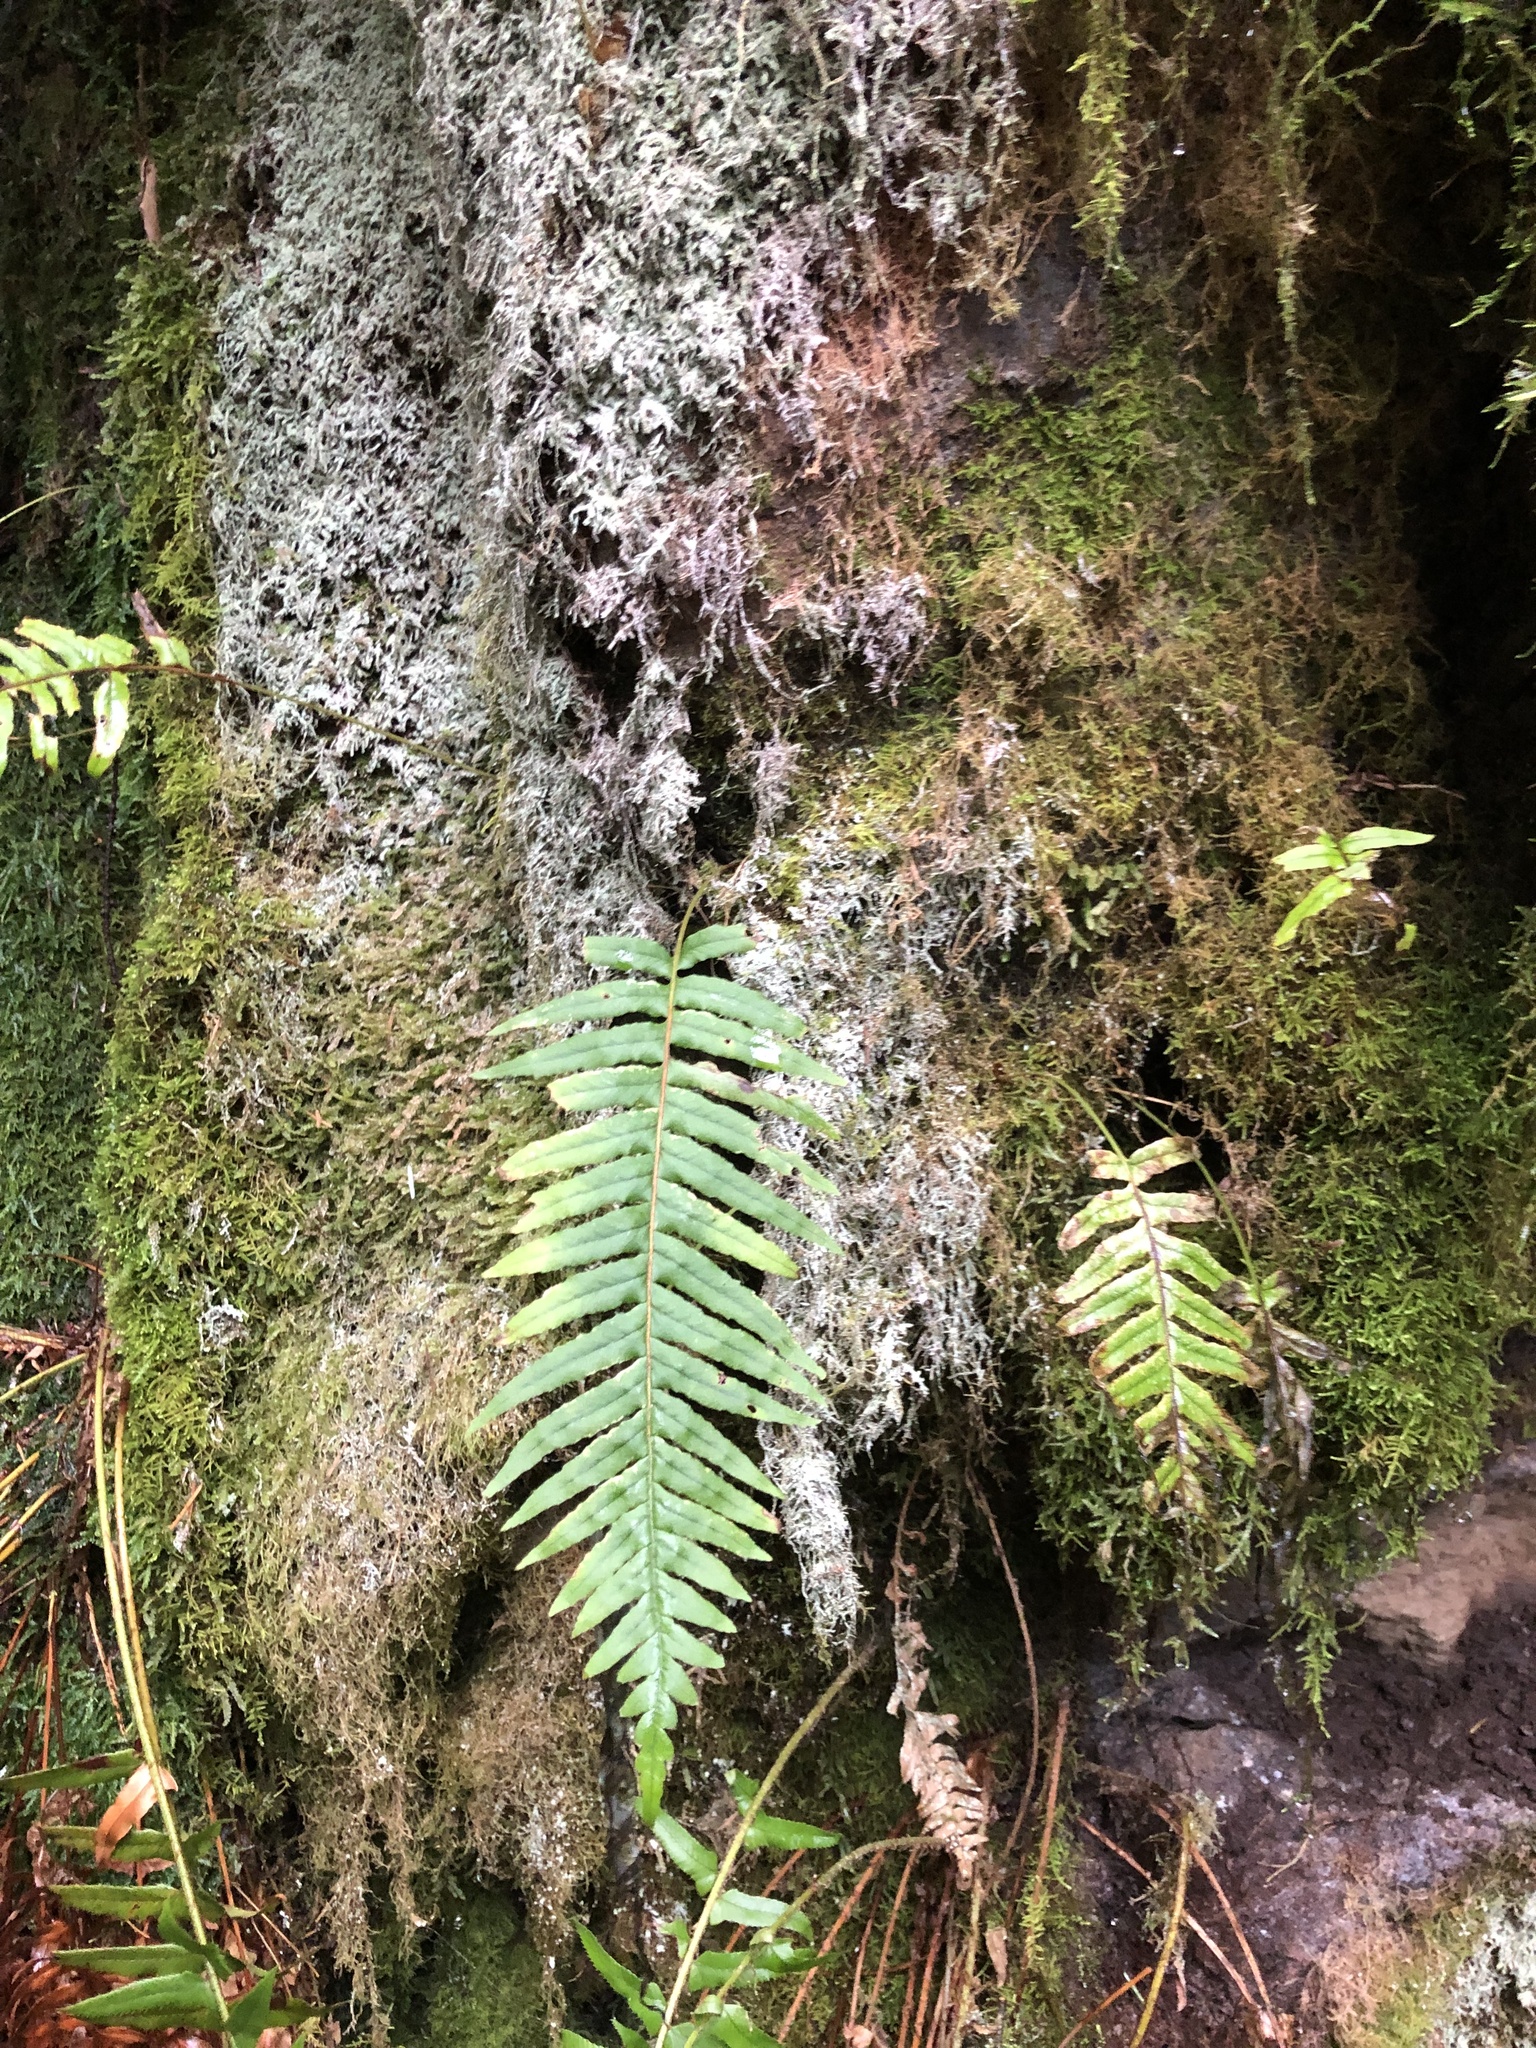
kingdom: Plantae
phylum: Tracheophyta
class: Polypodiopsida
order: Polypodiales
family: Polypodiaceae
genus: Polypodium
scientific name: Polypodium glycyrrhiza
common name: Licorice fern
